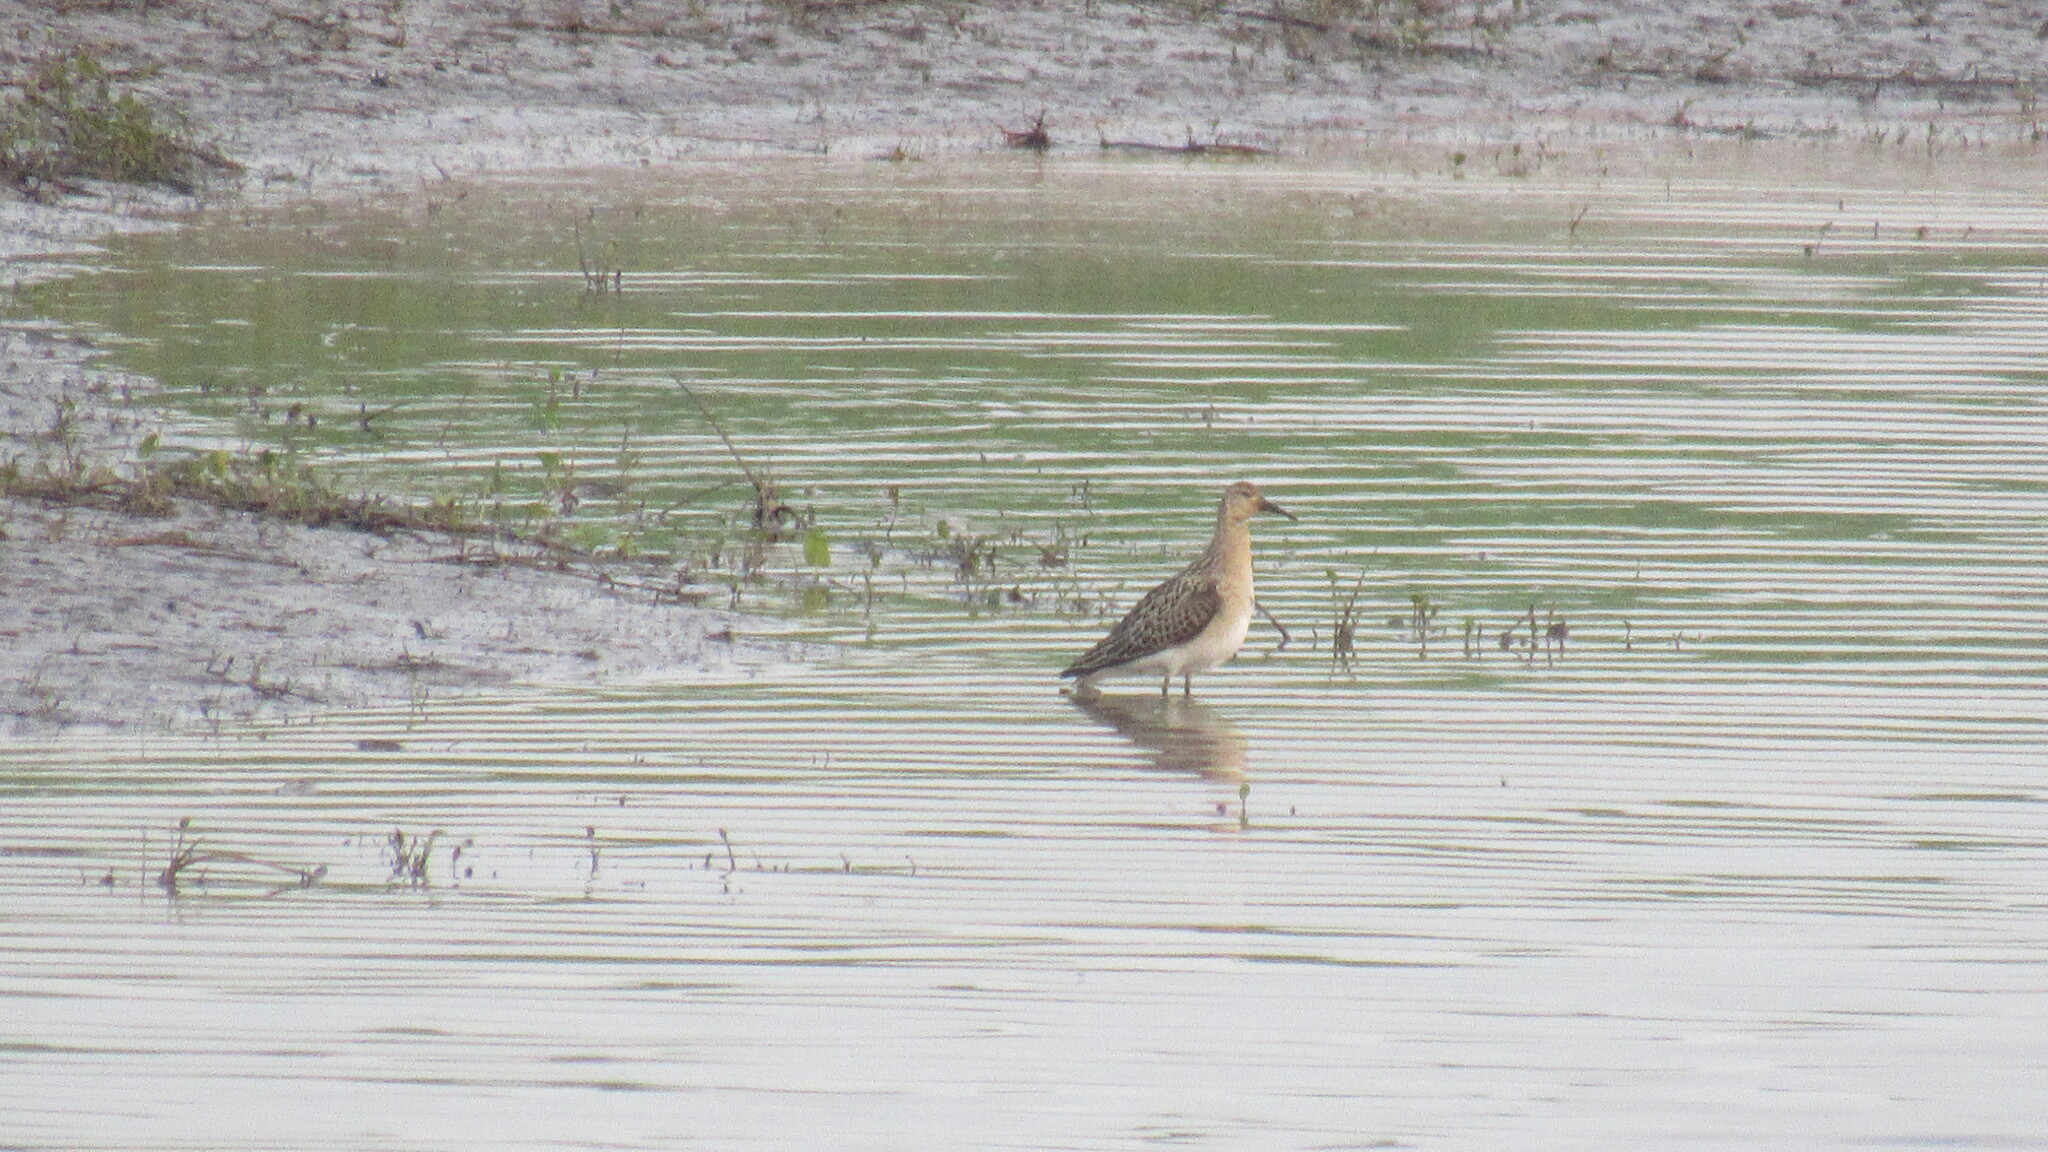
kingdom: Animalia
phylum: Chordata
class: Aves
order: Charadriiformes
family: Scolopacidae
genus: Calidris
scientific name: Calidris pugnax
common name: Ruff
